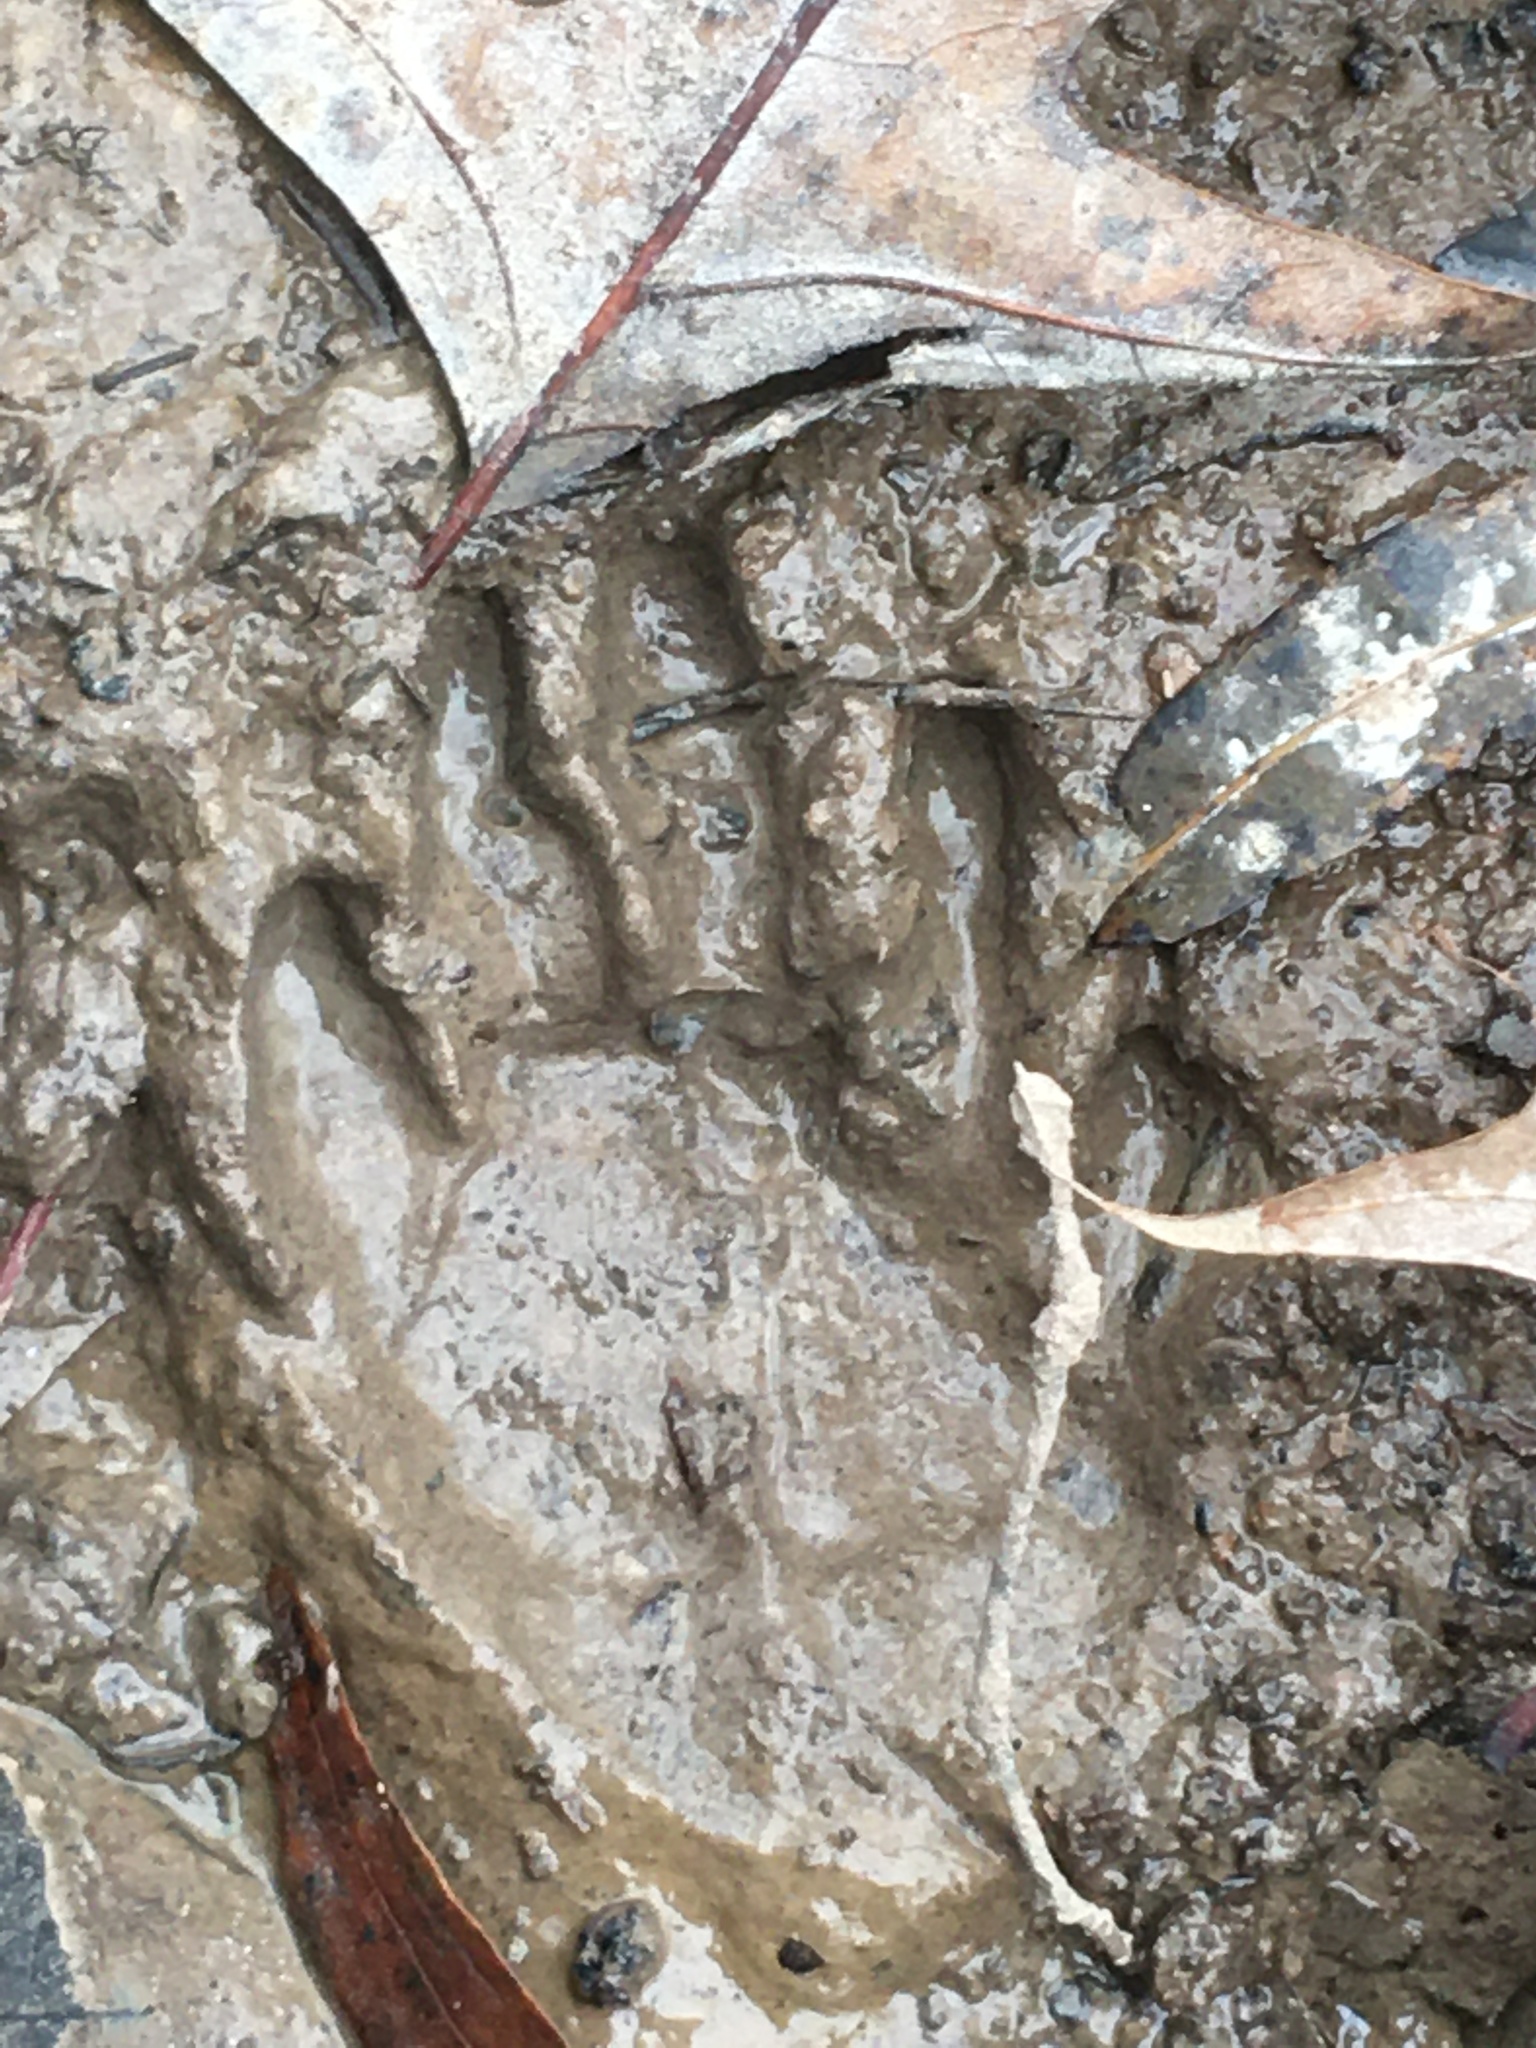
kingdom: Animalia
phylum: Chordata
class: Mammalia
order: Carnivora
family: Procyonidae
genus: Procyon
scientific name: Procyon lotor
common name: Raccoon
